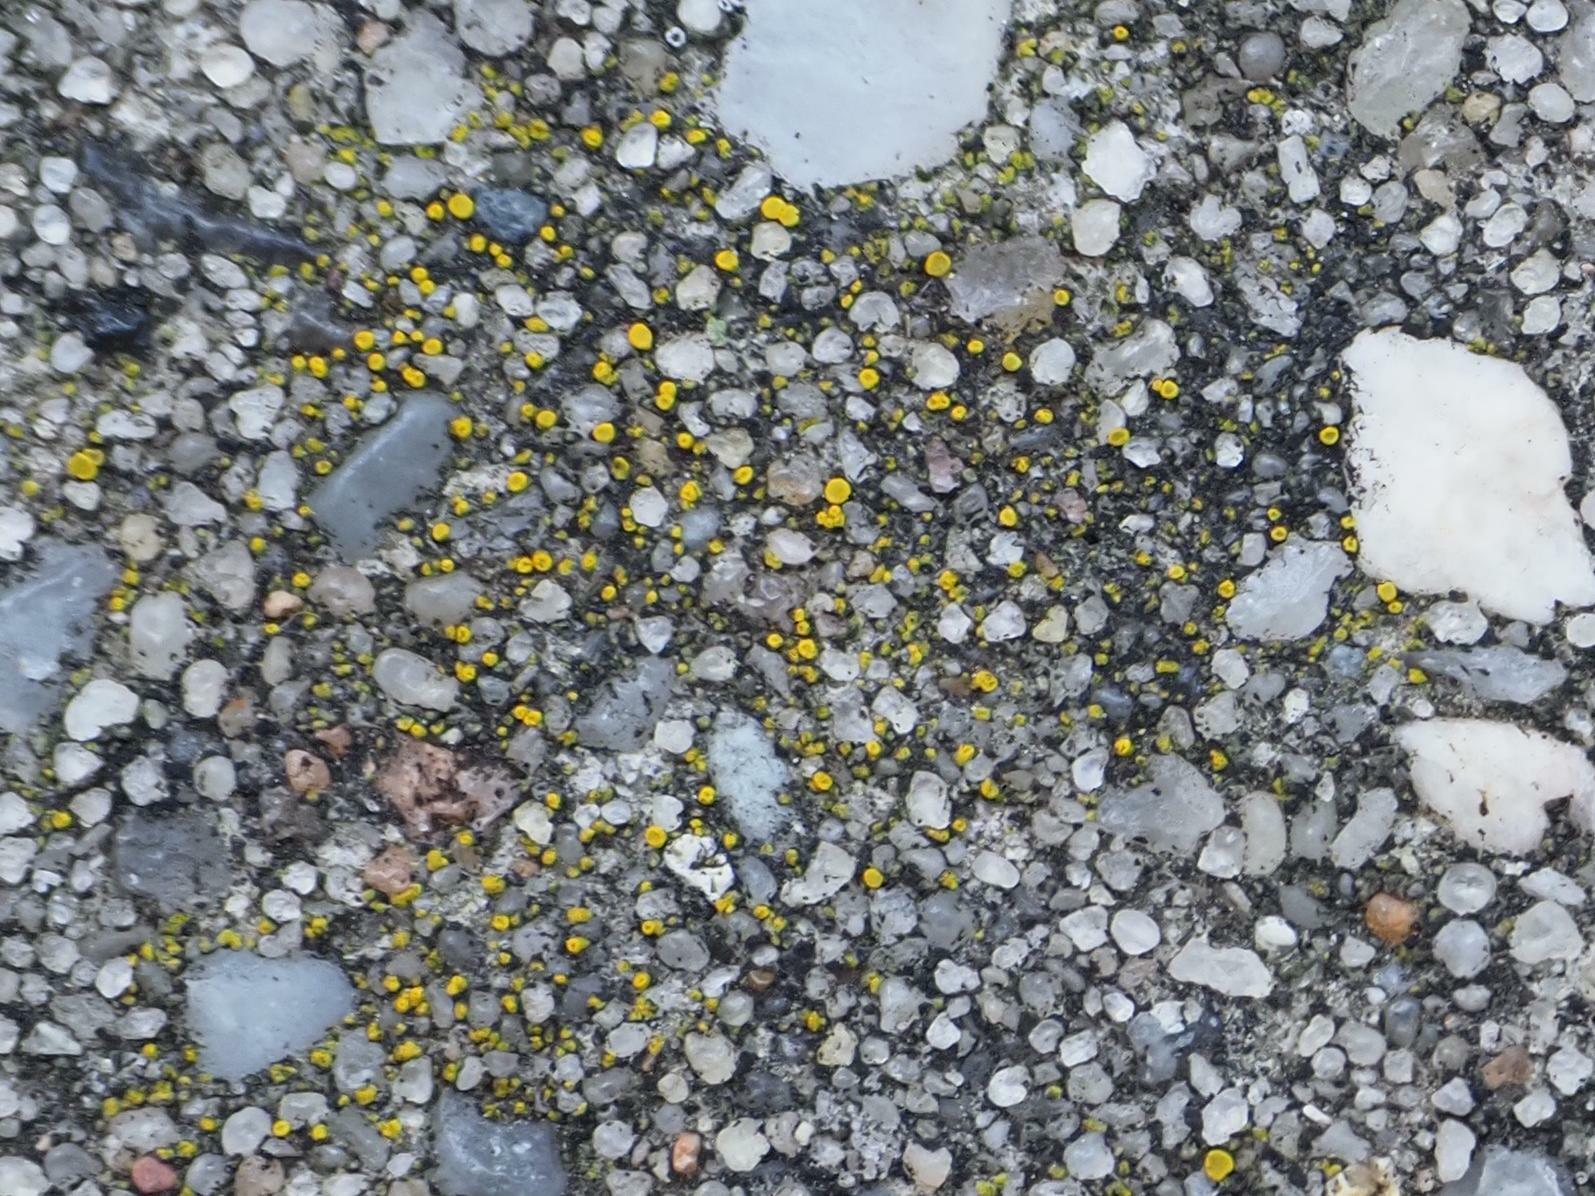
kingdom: Fungi
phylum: Ascomycota
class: Candelariomycetes
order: Candelariales
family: Candelariaceae
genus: Candelariella
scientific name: Candelariella aurella
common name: Hidden goldspeck lichen
